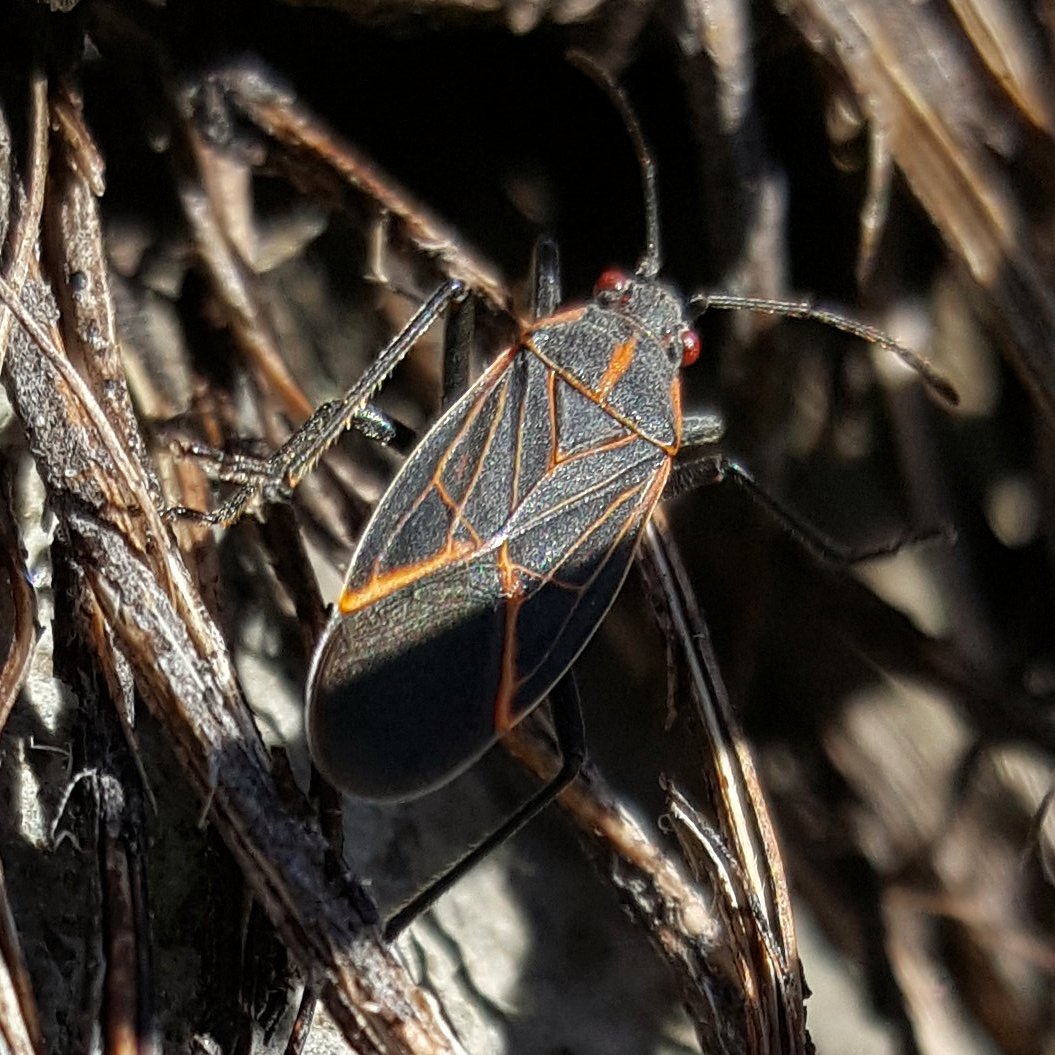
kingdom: Animalia
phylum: Arthropoda
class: Insecta
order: Hemiptera
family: Rhopalidae
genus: Boisea
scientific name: Boisea rubrolineata
